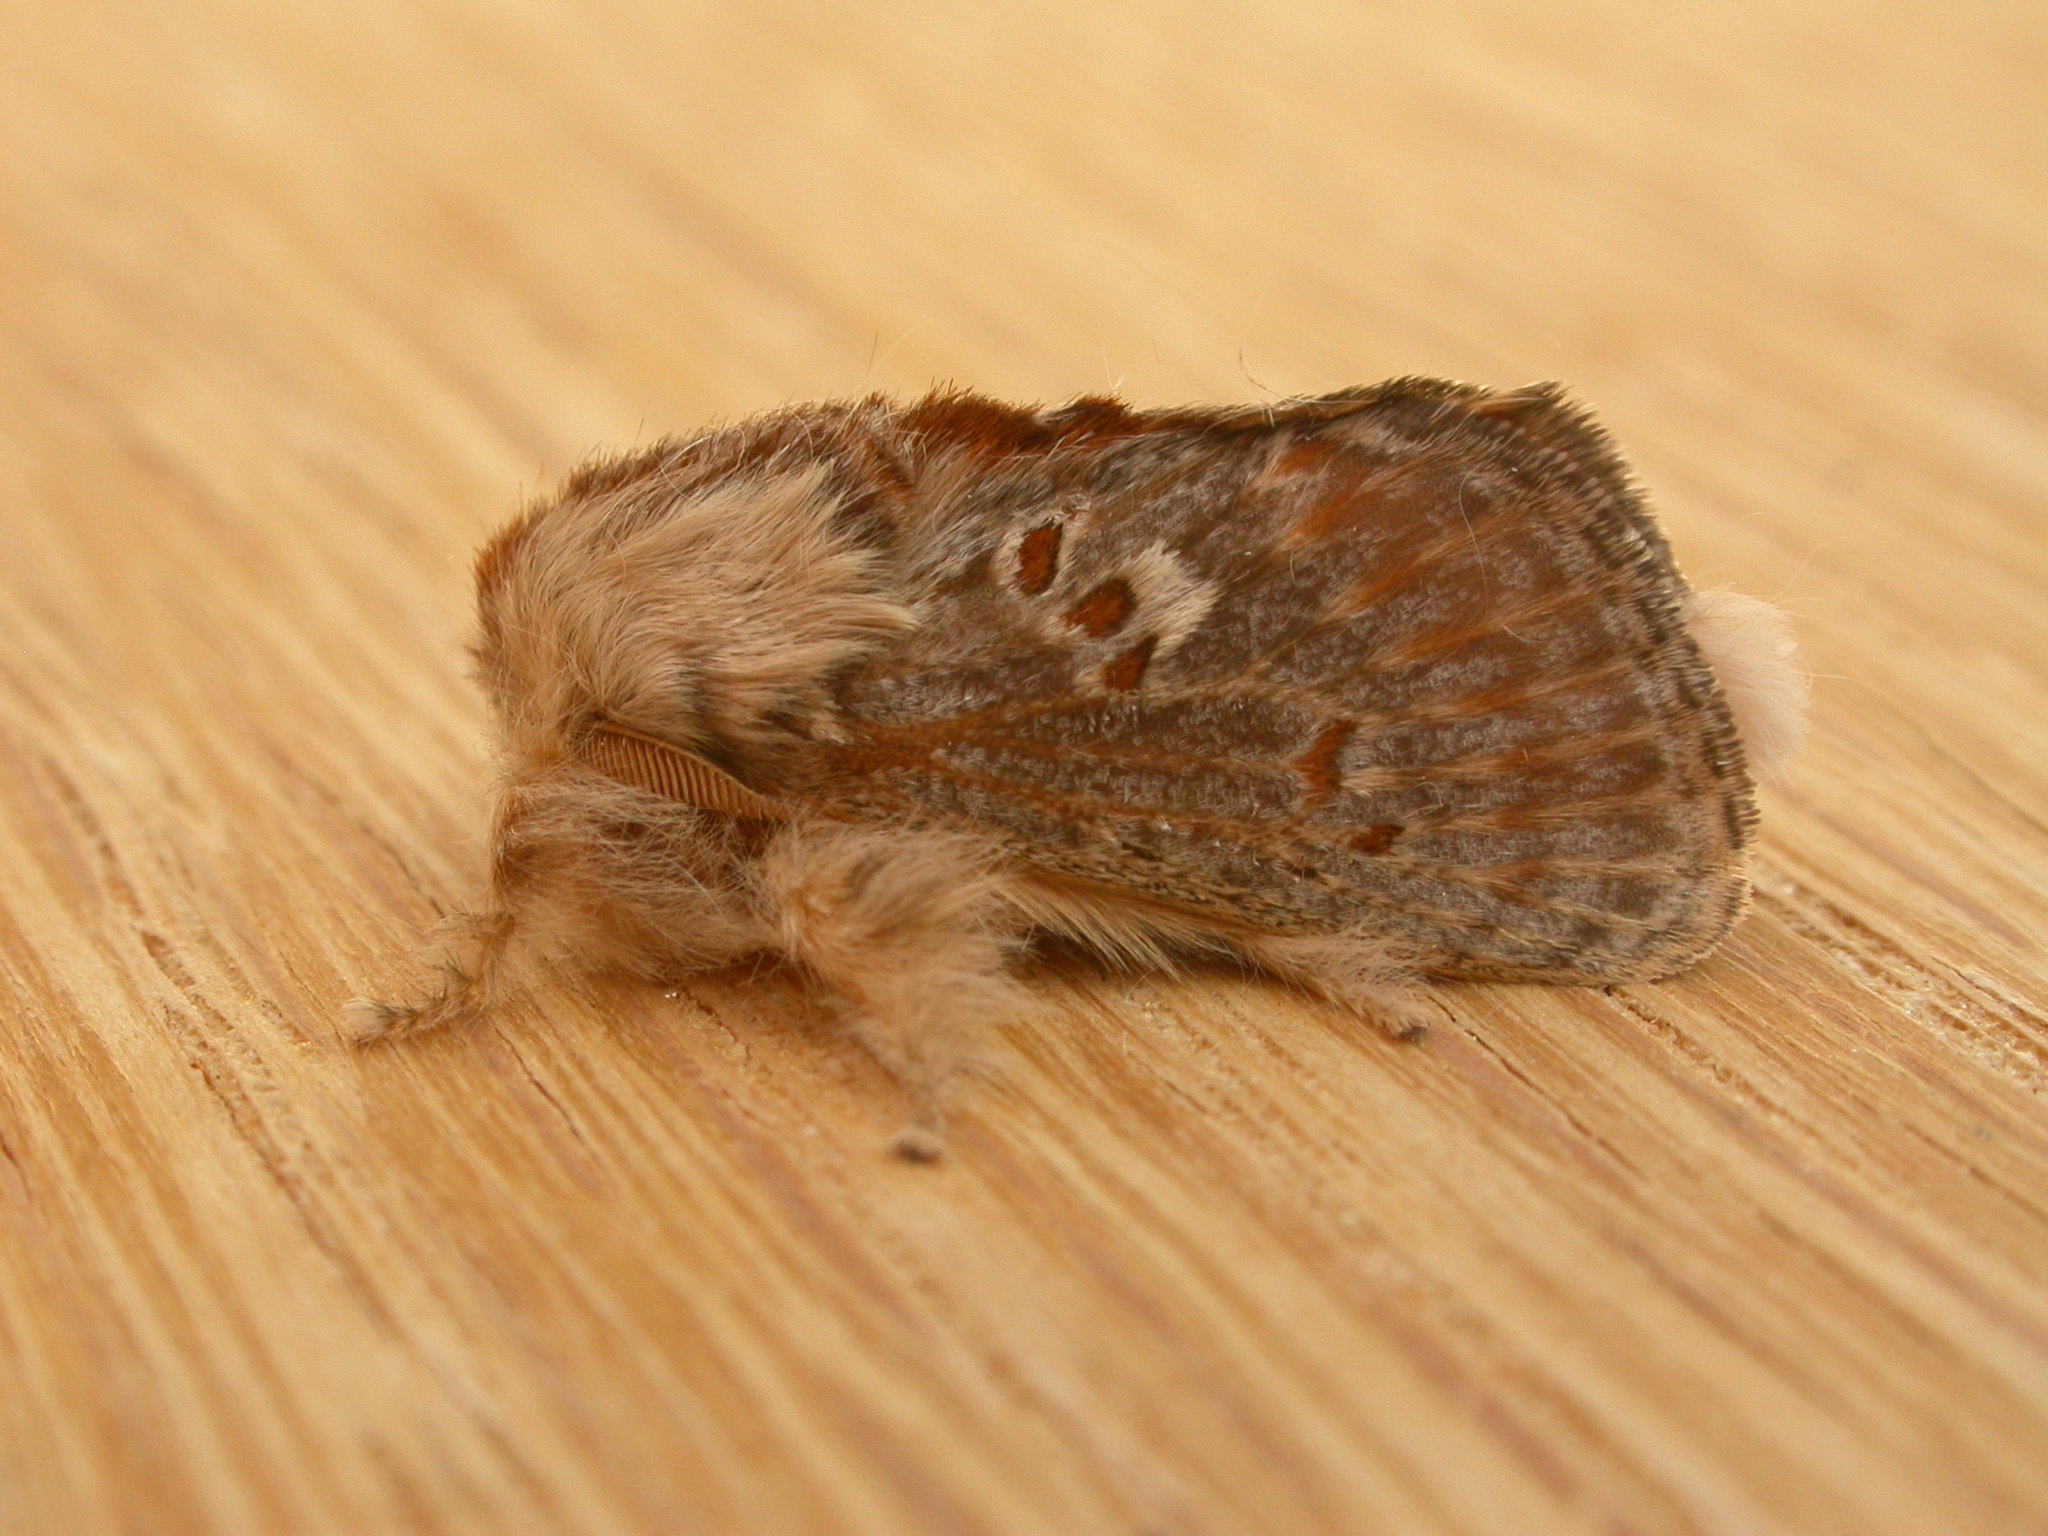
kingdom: Animalia
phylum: Arthropoda
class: Insecta
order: Lepidoptera
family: Limacodidae
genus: Pseudanapaea
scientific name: Pseudanapaea transvestita
